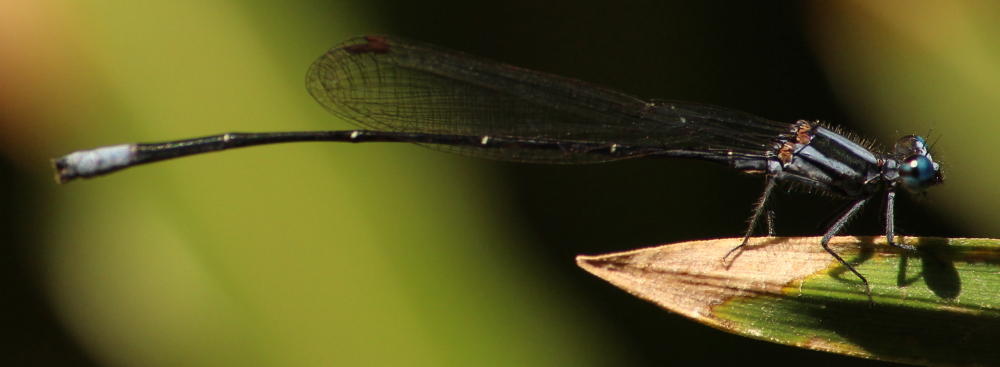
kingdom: Animalia
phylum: Arthropoda
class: Insecta
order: Odonata
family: Platycnemididae
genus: Elattoneura
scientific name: Elattoneura glauca
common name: Common threadtail
